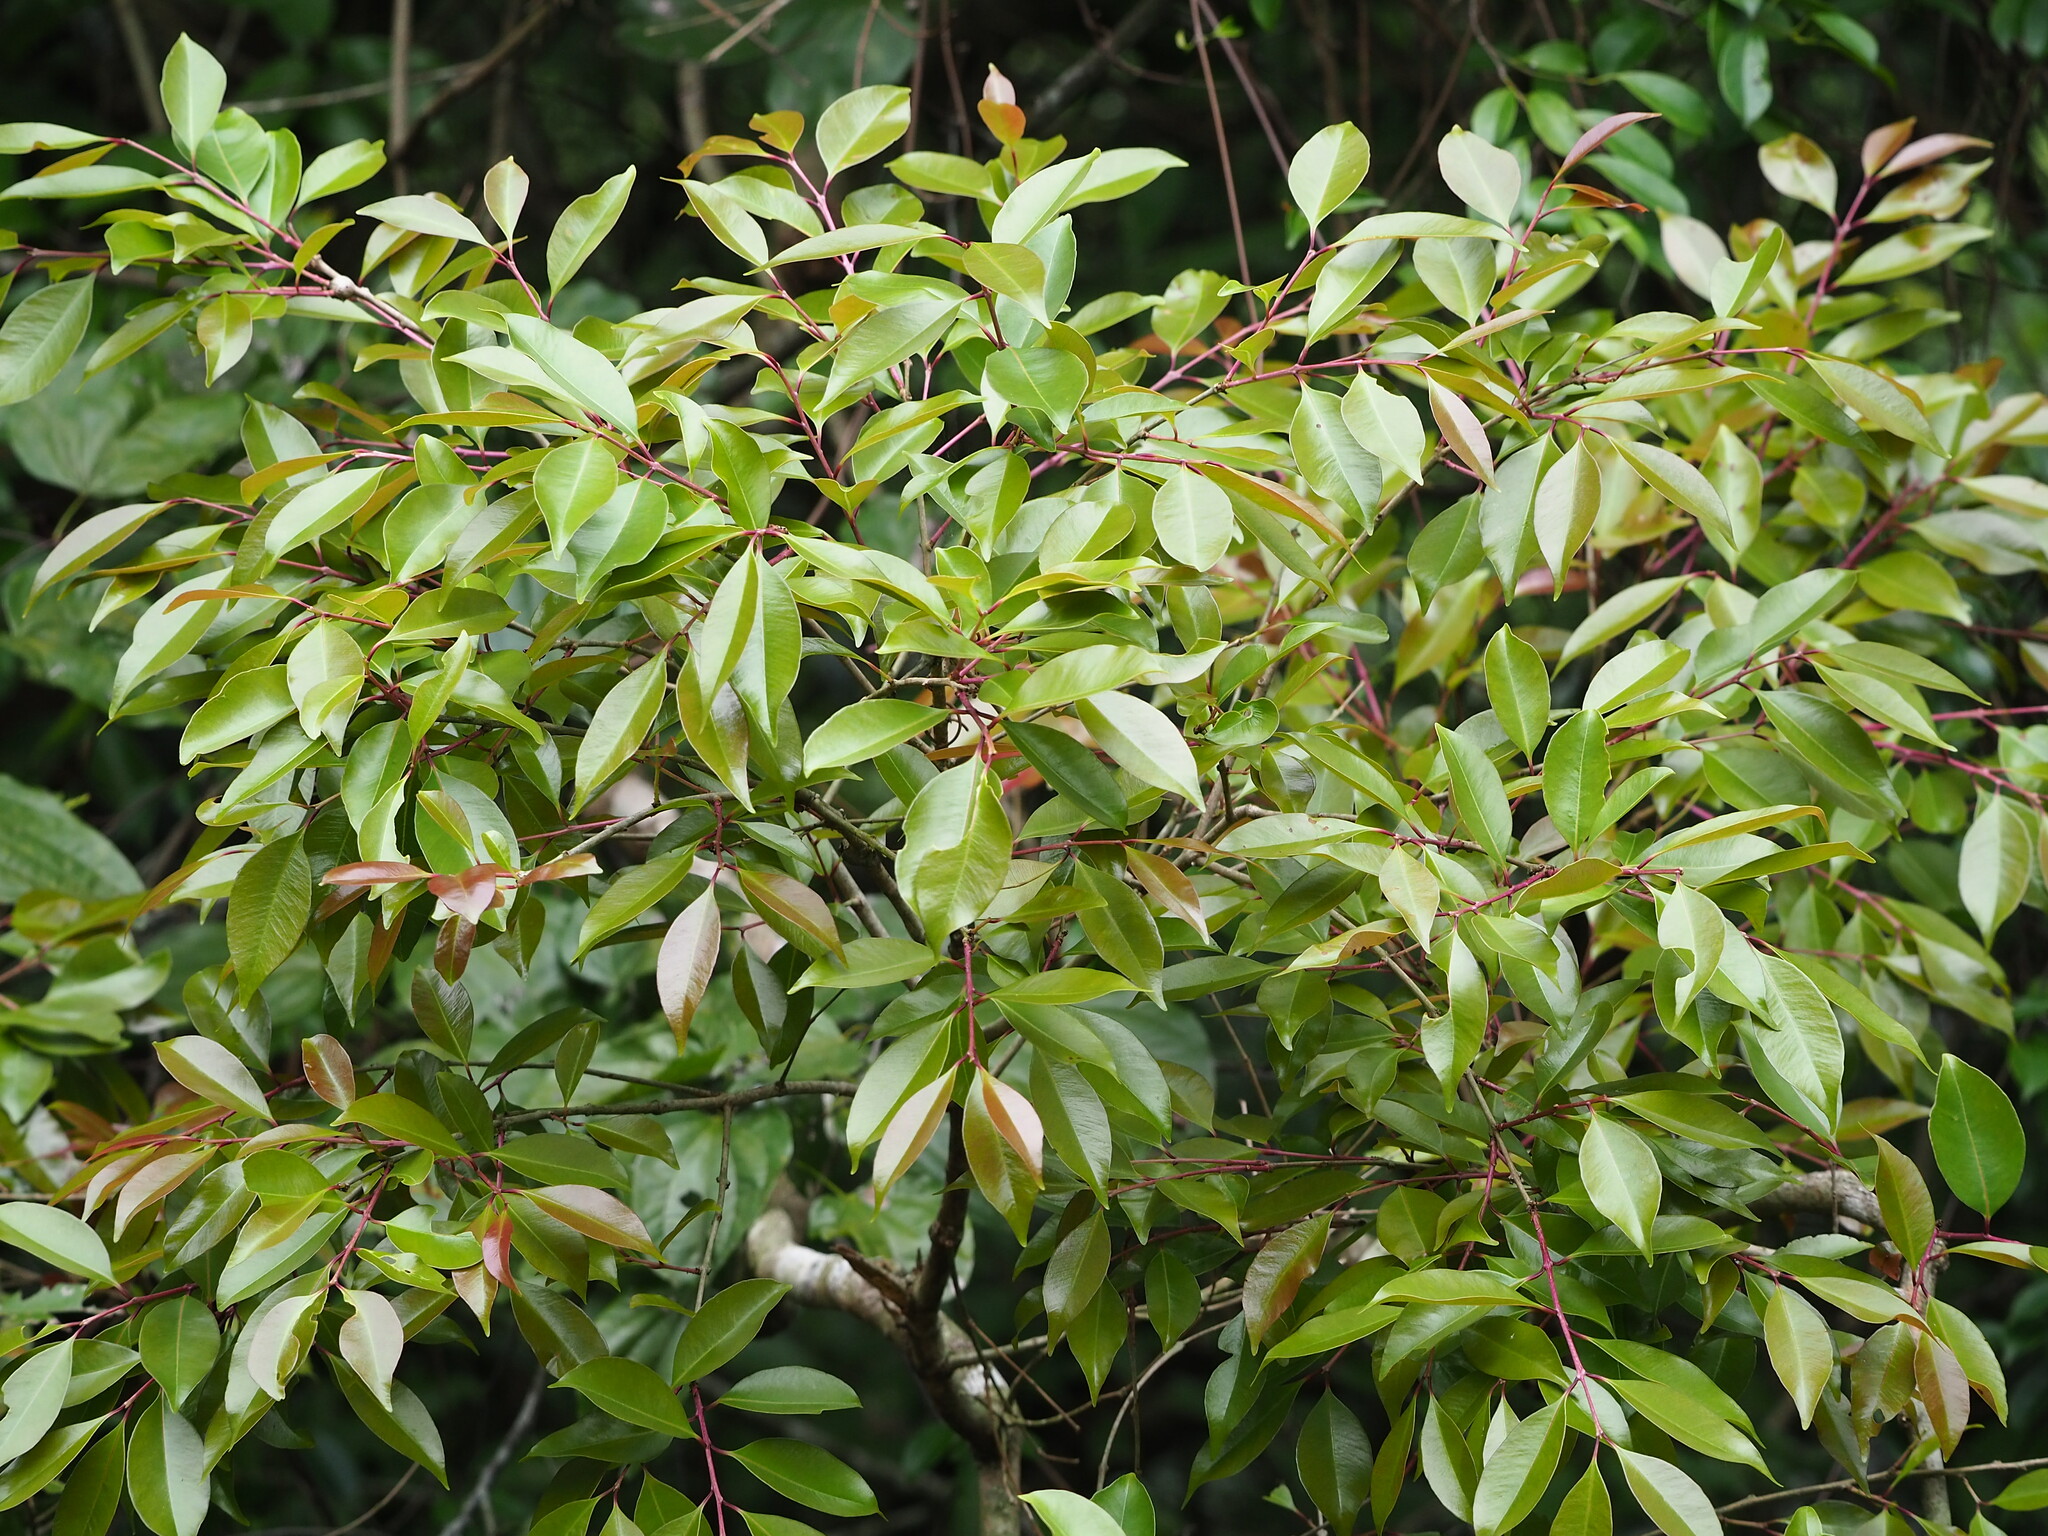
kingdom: Plantae
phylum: Tracheophyta
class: Magnoliopsida
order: Myrtales
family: Myrtaceae
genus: Syzygium
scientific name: Syzygium formosanum
